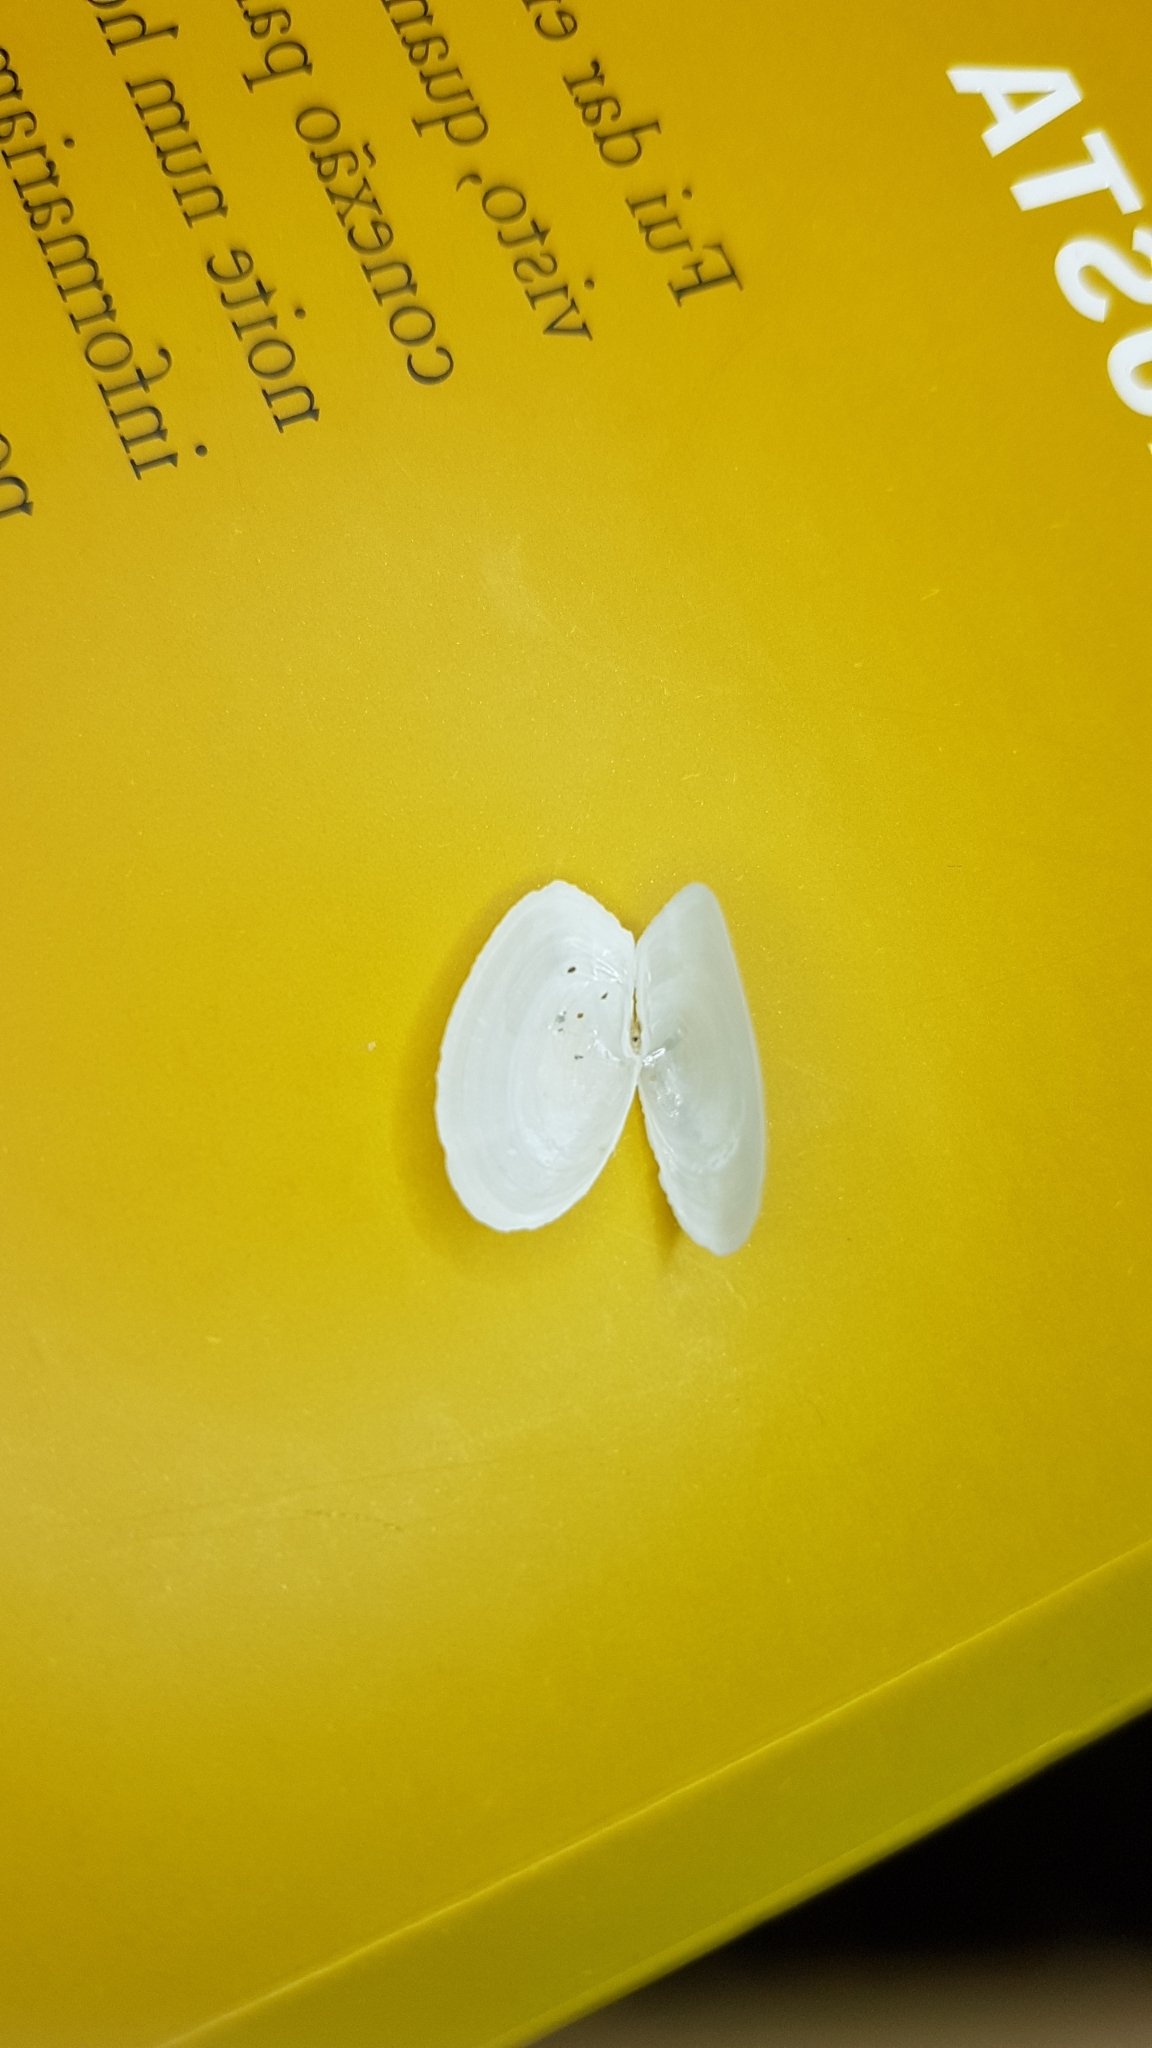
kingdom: Animalia
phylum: Mollusca
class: Bivalvia
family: Thraciidae
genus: Thracia
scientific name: Thracia phaseolina
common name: Kidneybean thracia
